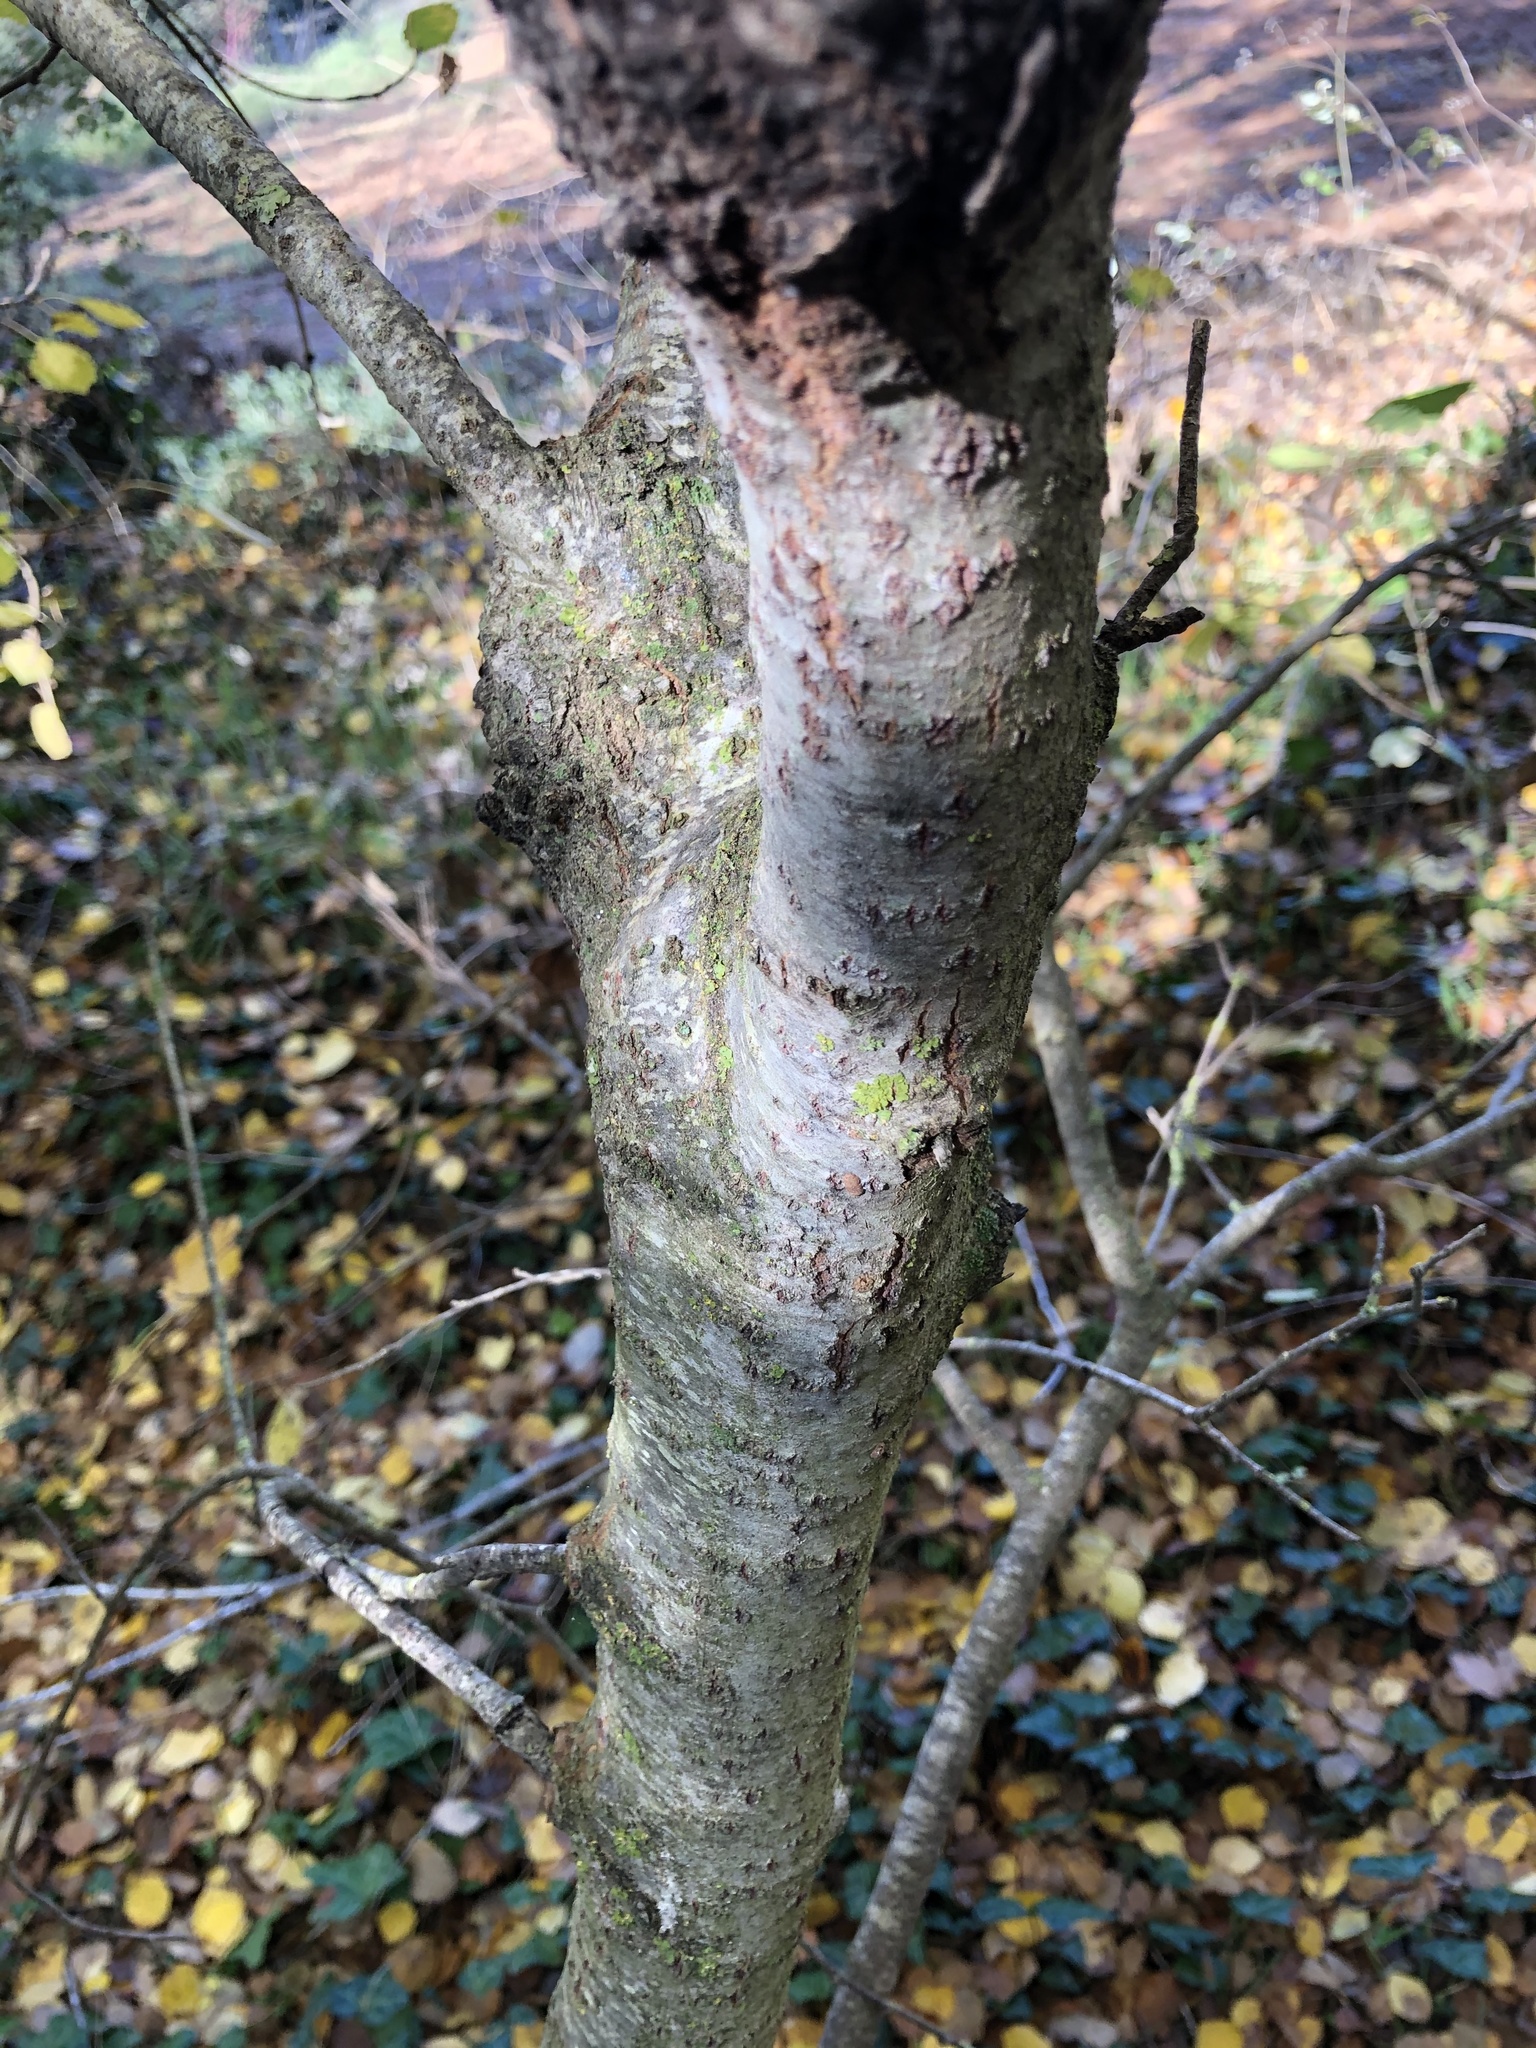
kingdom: Plantae
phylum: Tracheophyta
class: Magnoliopsida
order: Malpighiales
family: Salicaceae
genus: Populus
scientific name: Populus canescens
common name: Gray poplar
